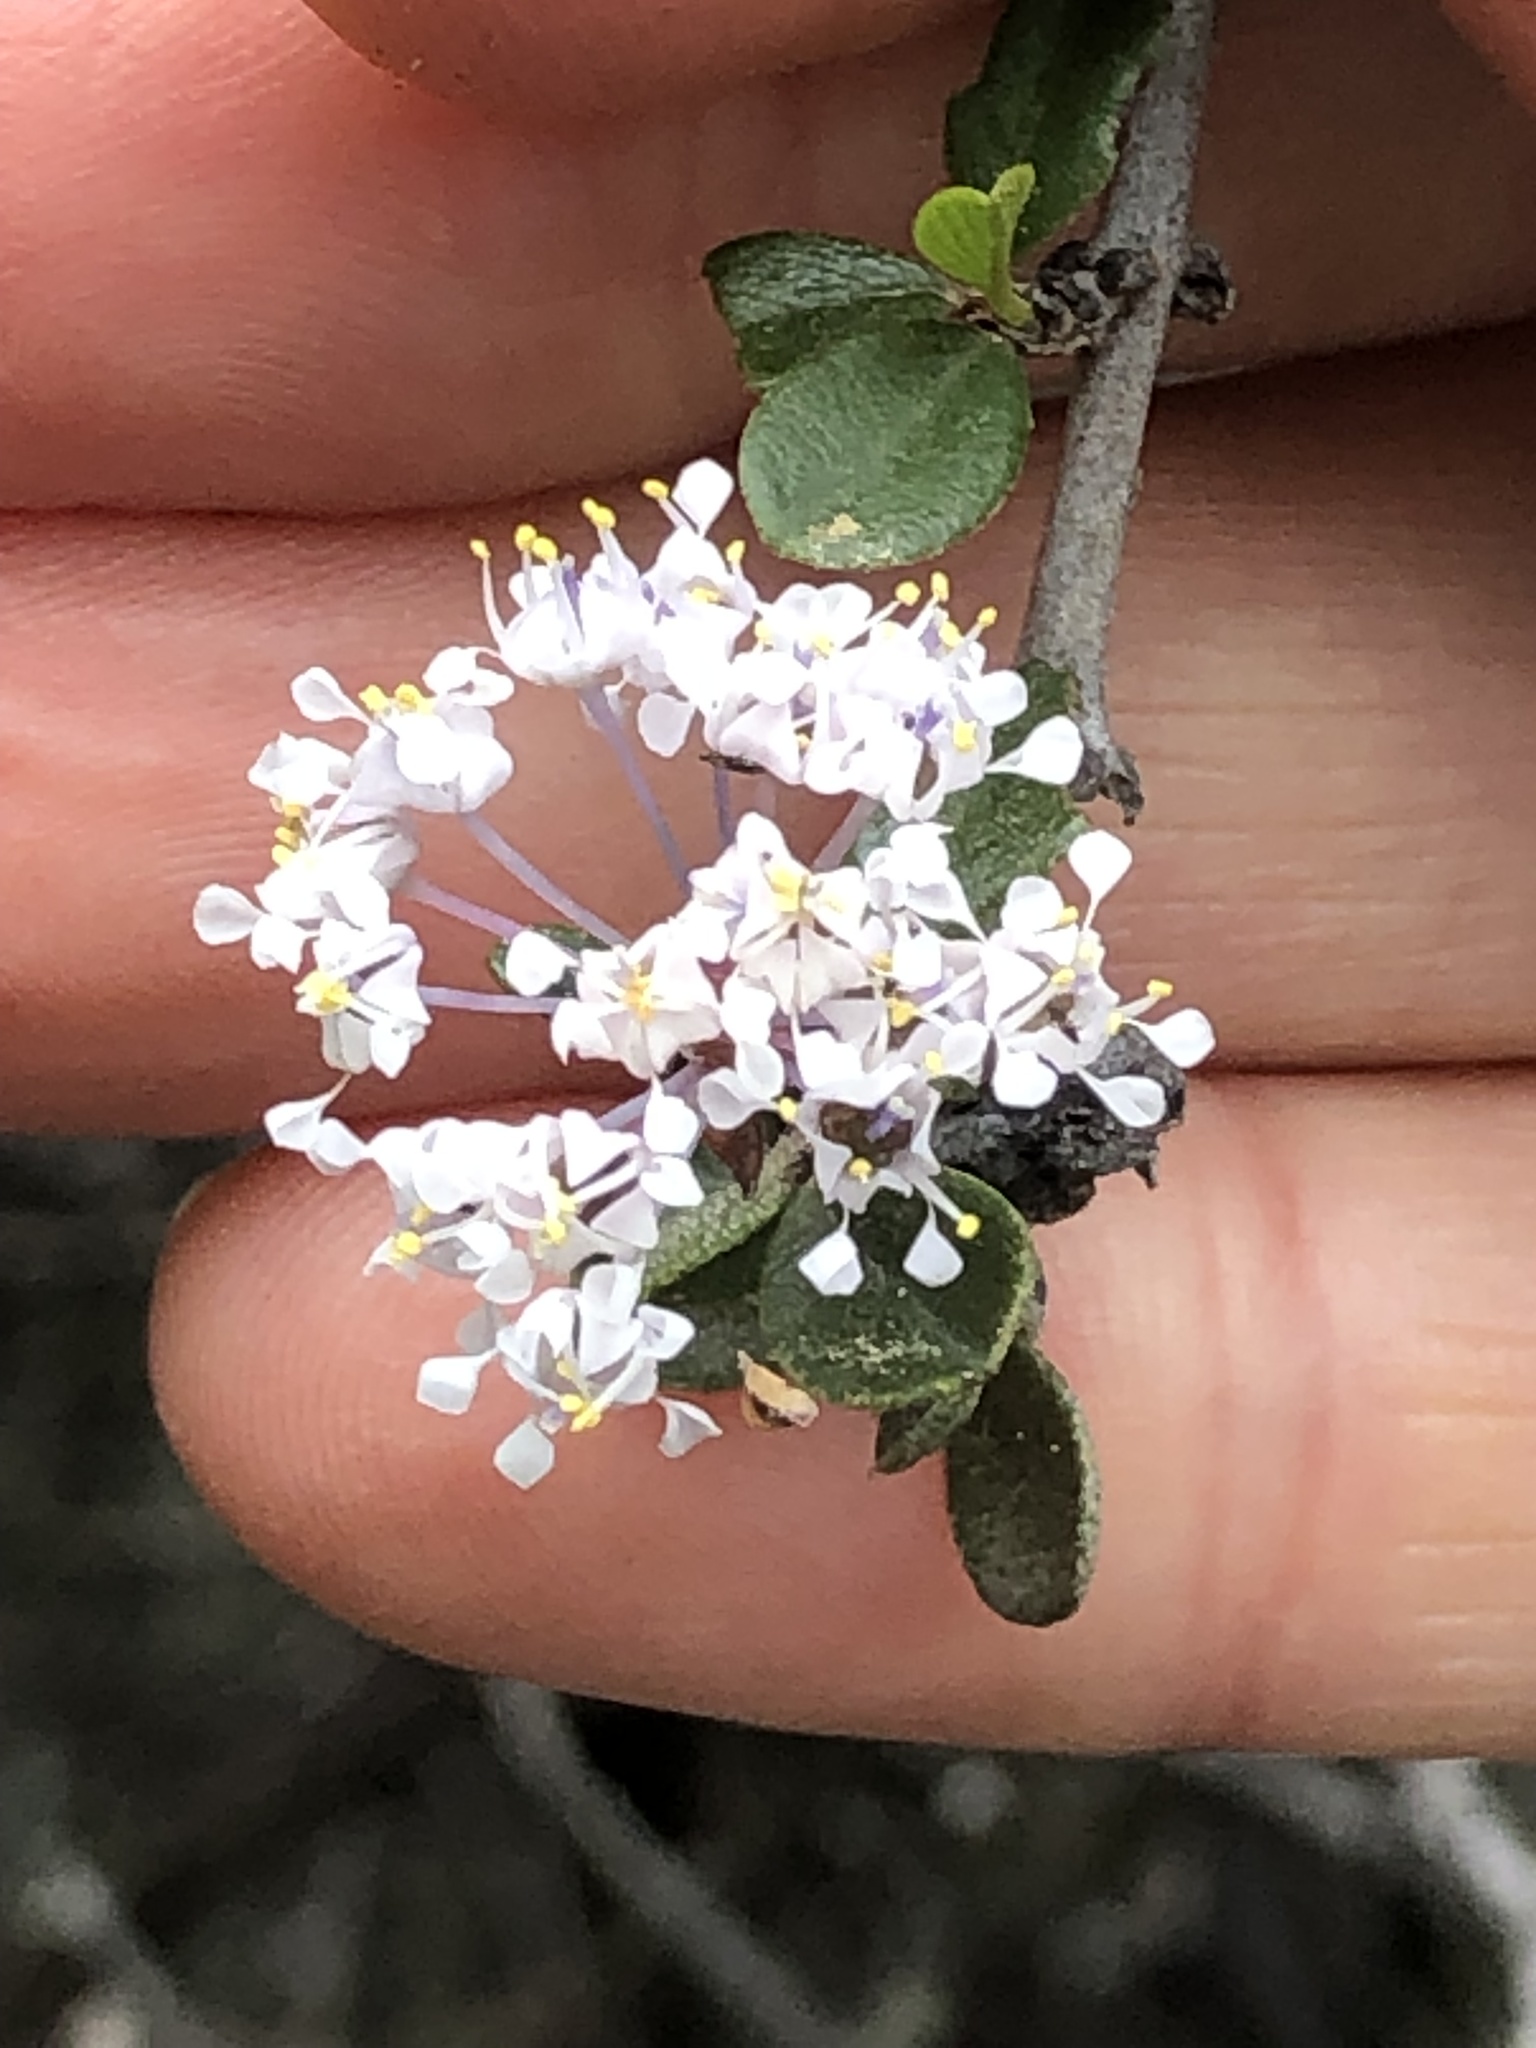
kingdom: Plantae
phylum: Tracheophyta
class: Magnoliopsida
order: Rosales
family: Rhamnaceae
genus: Ceanothus
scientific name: Ceanothus cuneatus
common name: Cuneate ceanothus
